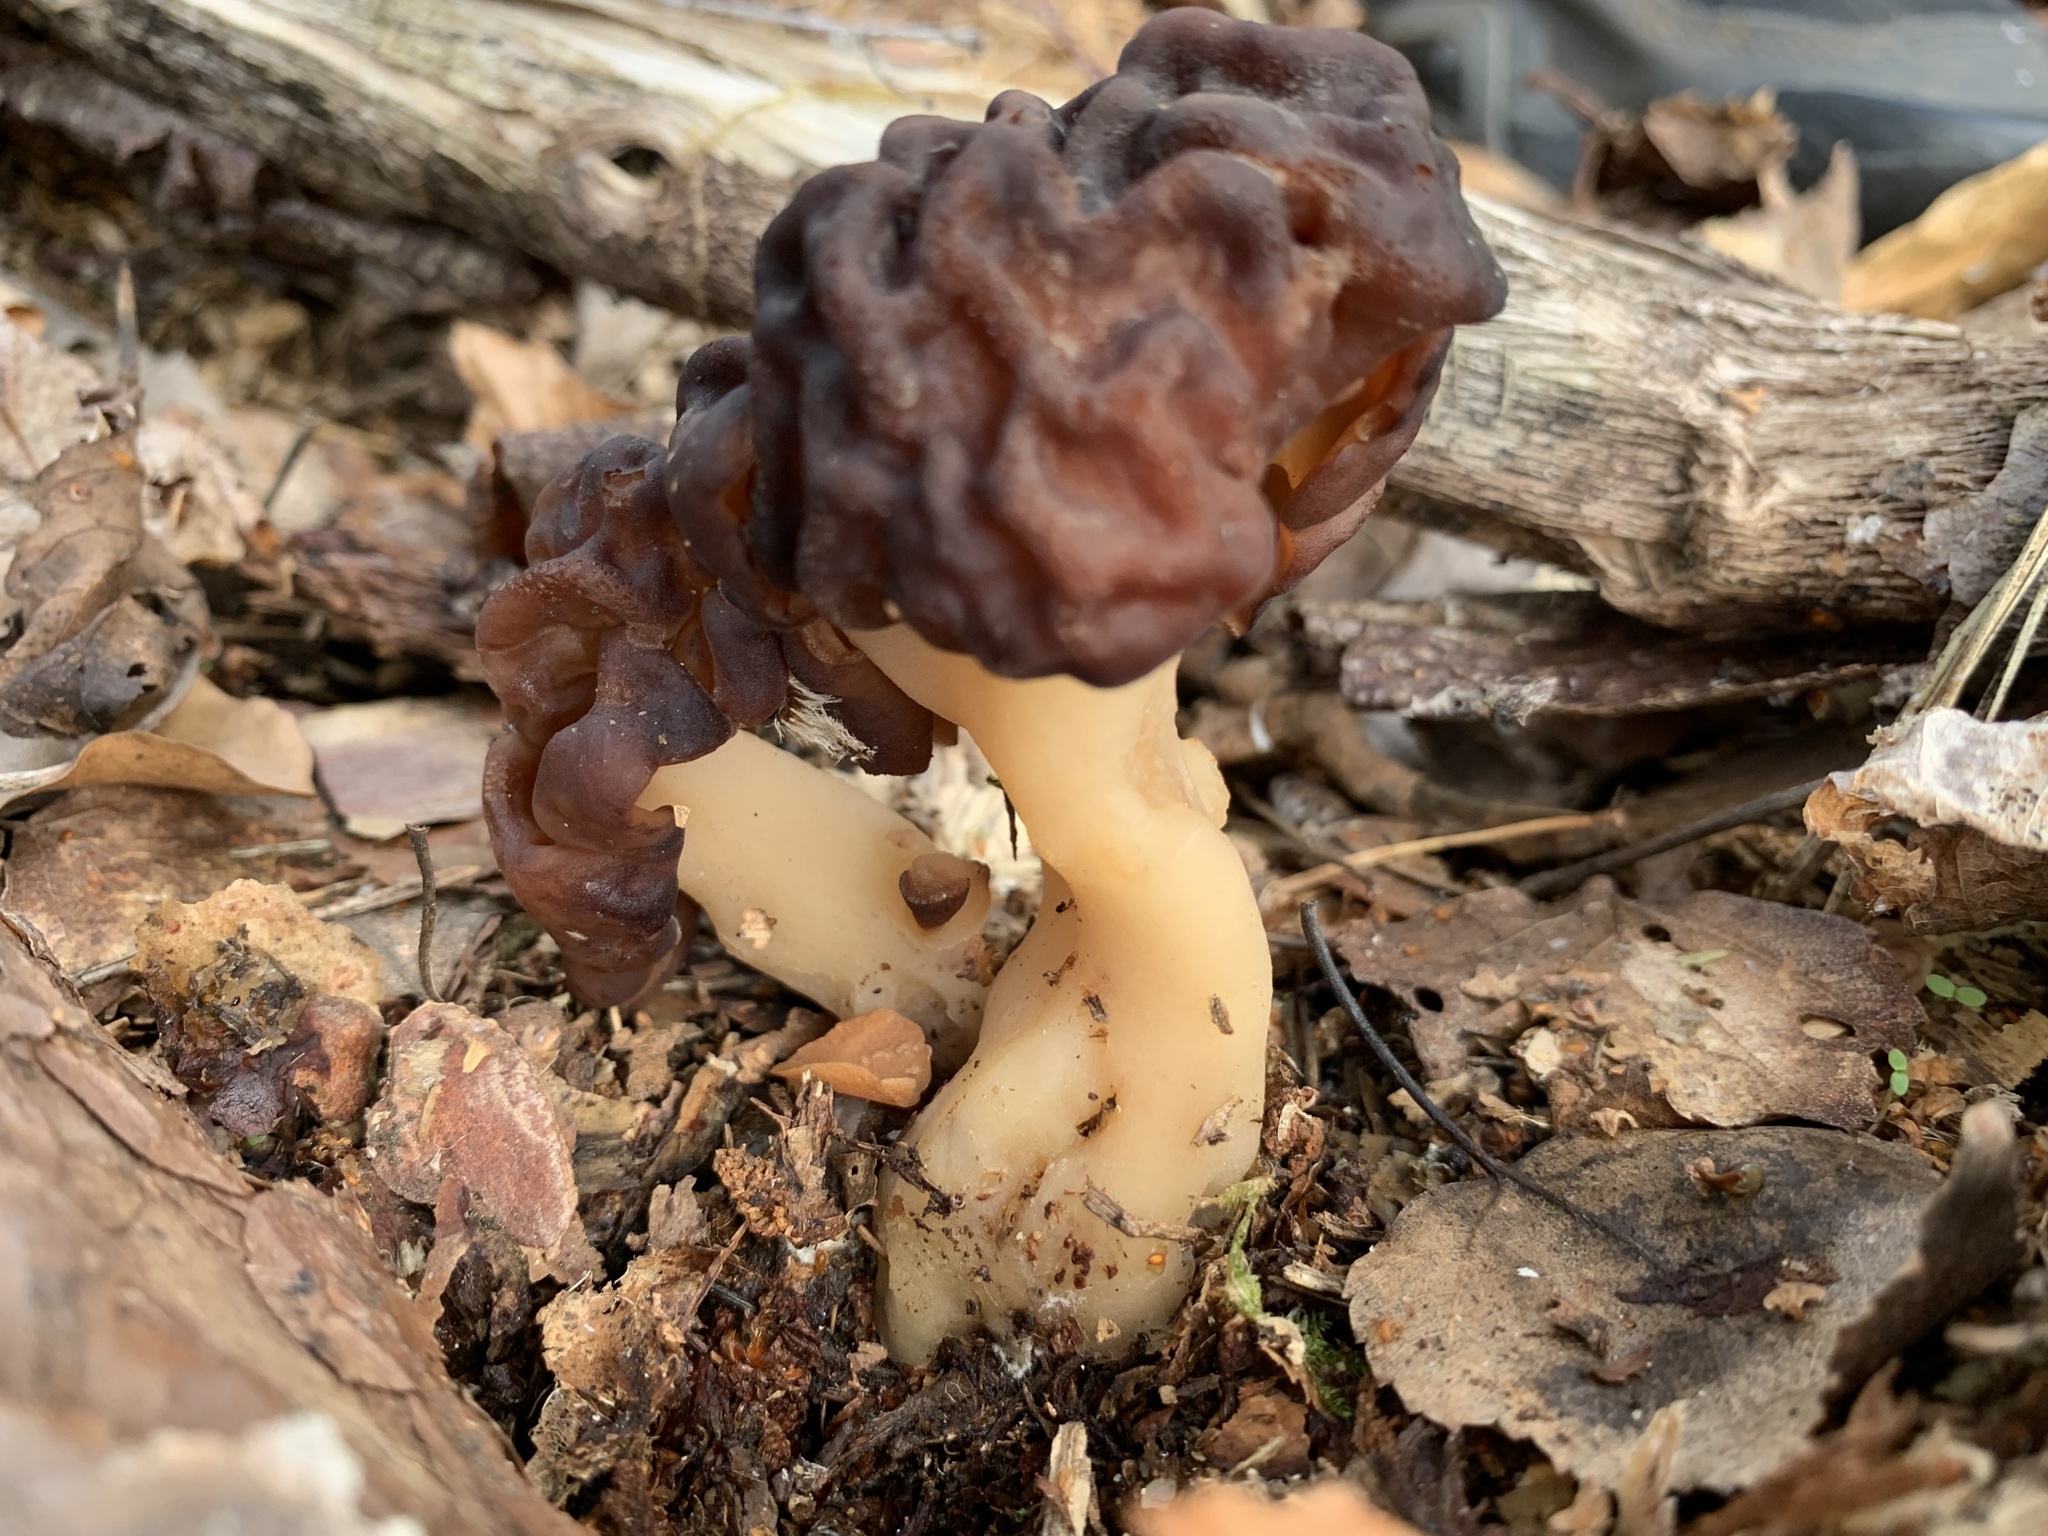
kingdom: Fungi
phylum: Ascomycota
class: Pezizomycetes
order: Pezizales
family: Discinaceae
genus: Gyromitra
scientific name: Gyromitra esculenta
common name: False morel
